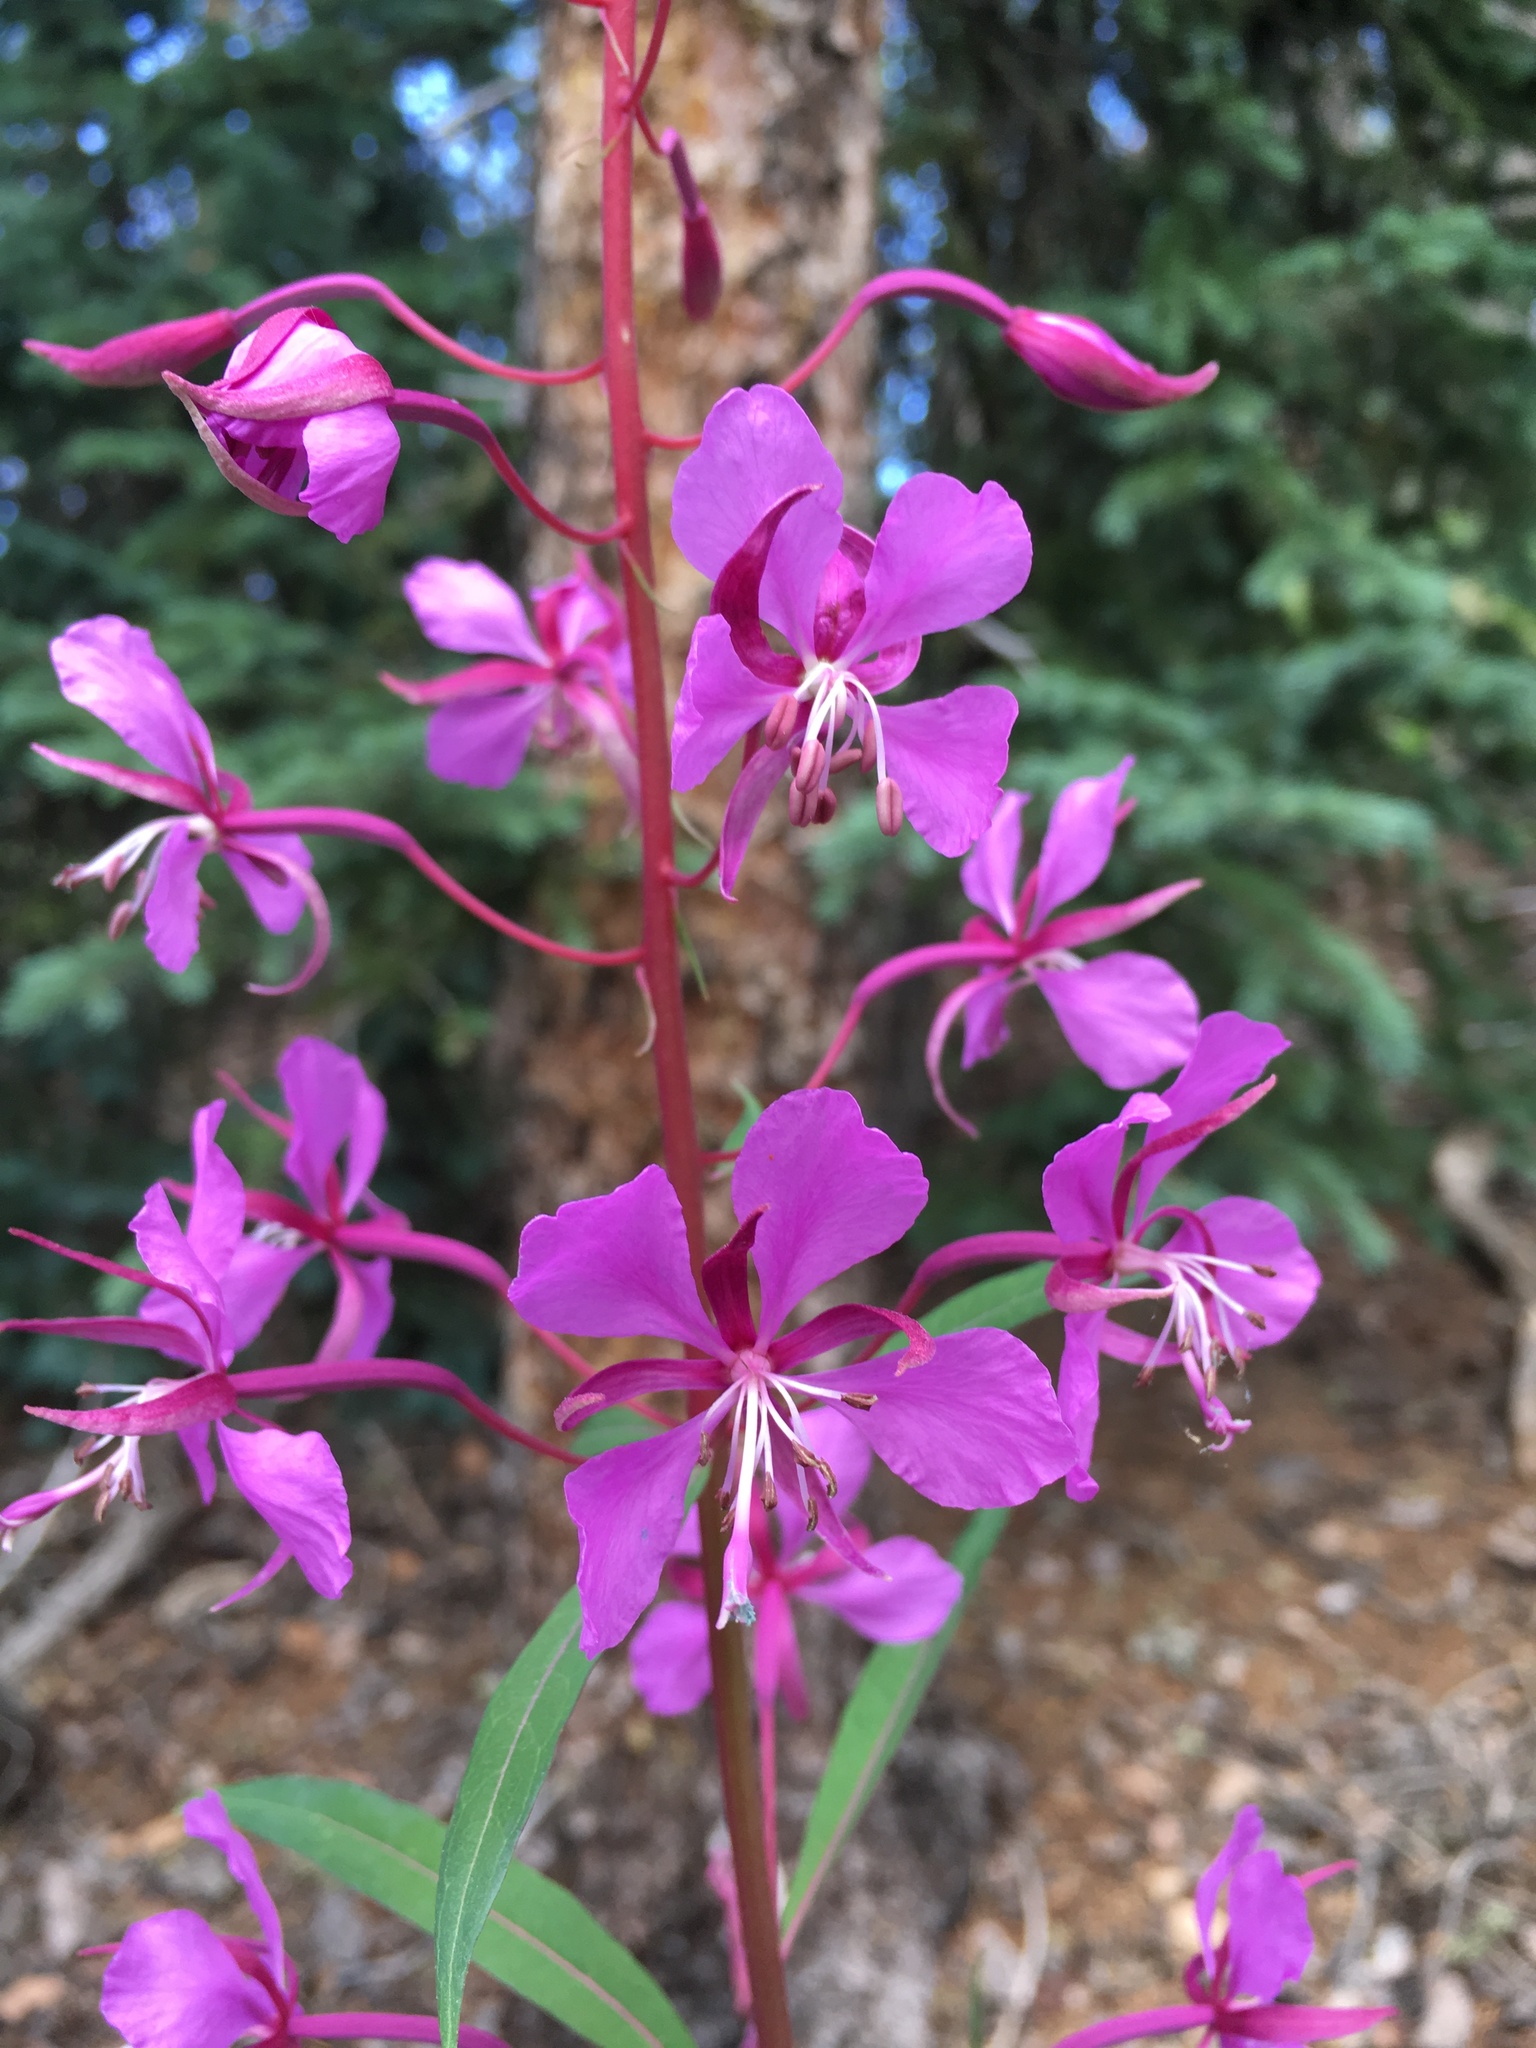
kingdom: Plantae
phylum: Tracheophyta
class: Magnoliopsida
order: Myrtales
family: Onagraceae
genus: Chamaenerion
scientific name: Chamaenerion angustifolium
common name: Fireweed
